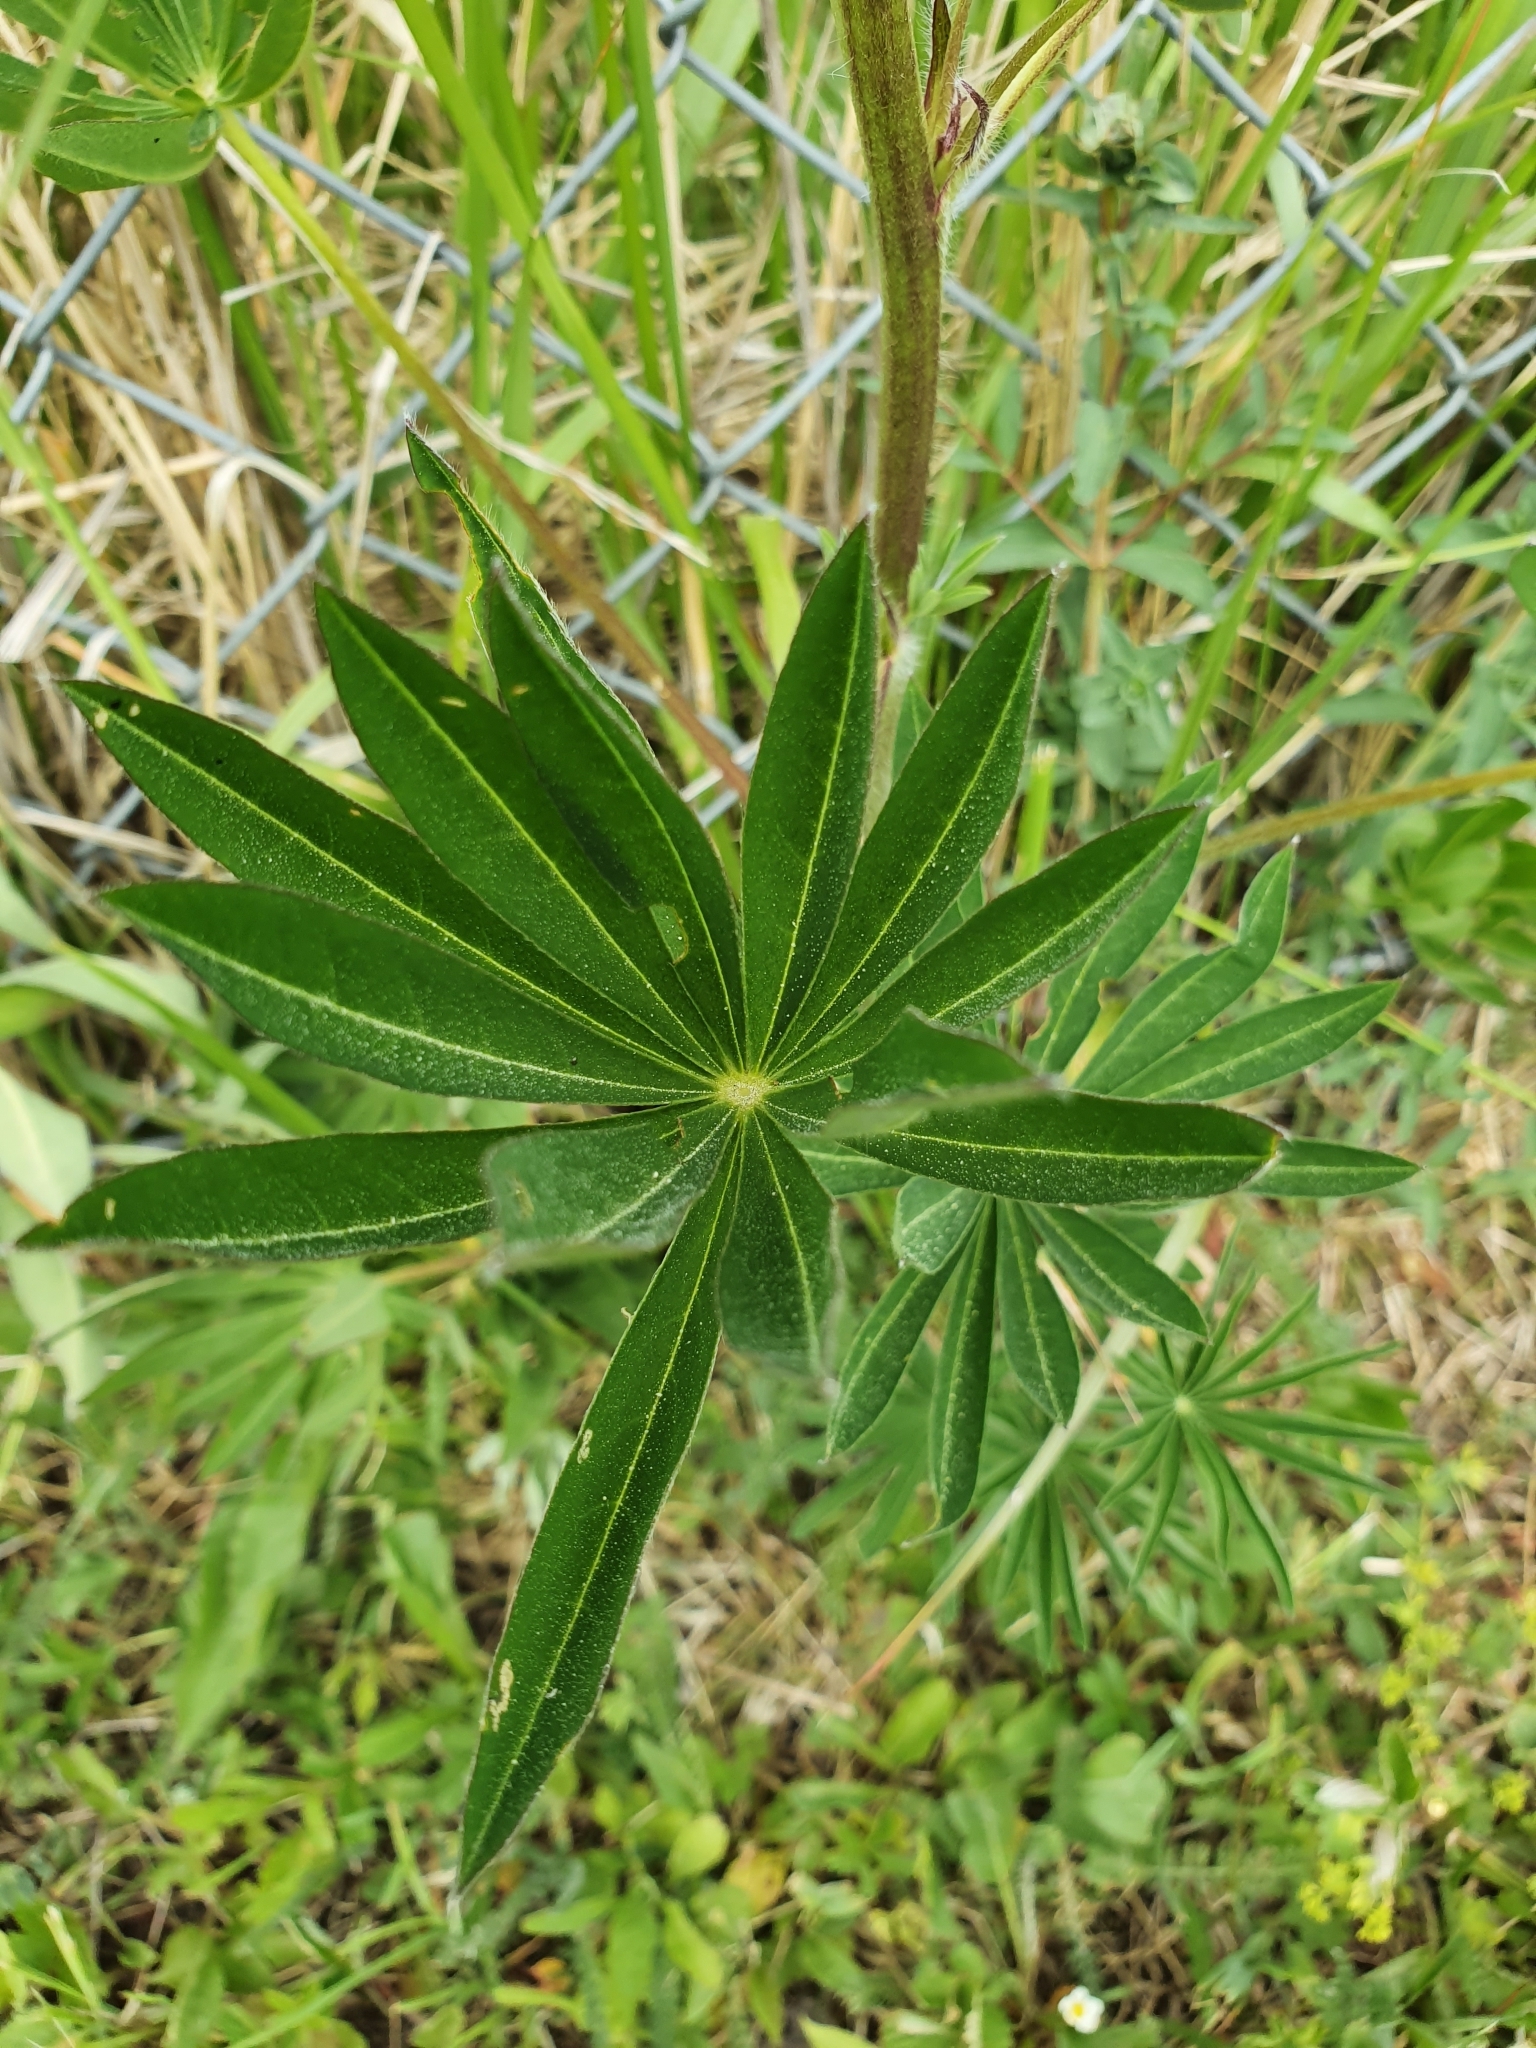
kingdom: Plantae
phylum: Tracheophyta
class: Magnoliopsida
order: Fabales
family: Fabaceae
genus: Lupinus
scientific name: Lupinus polyphyllus
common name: Garden lupin
